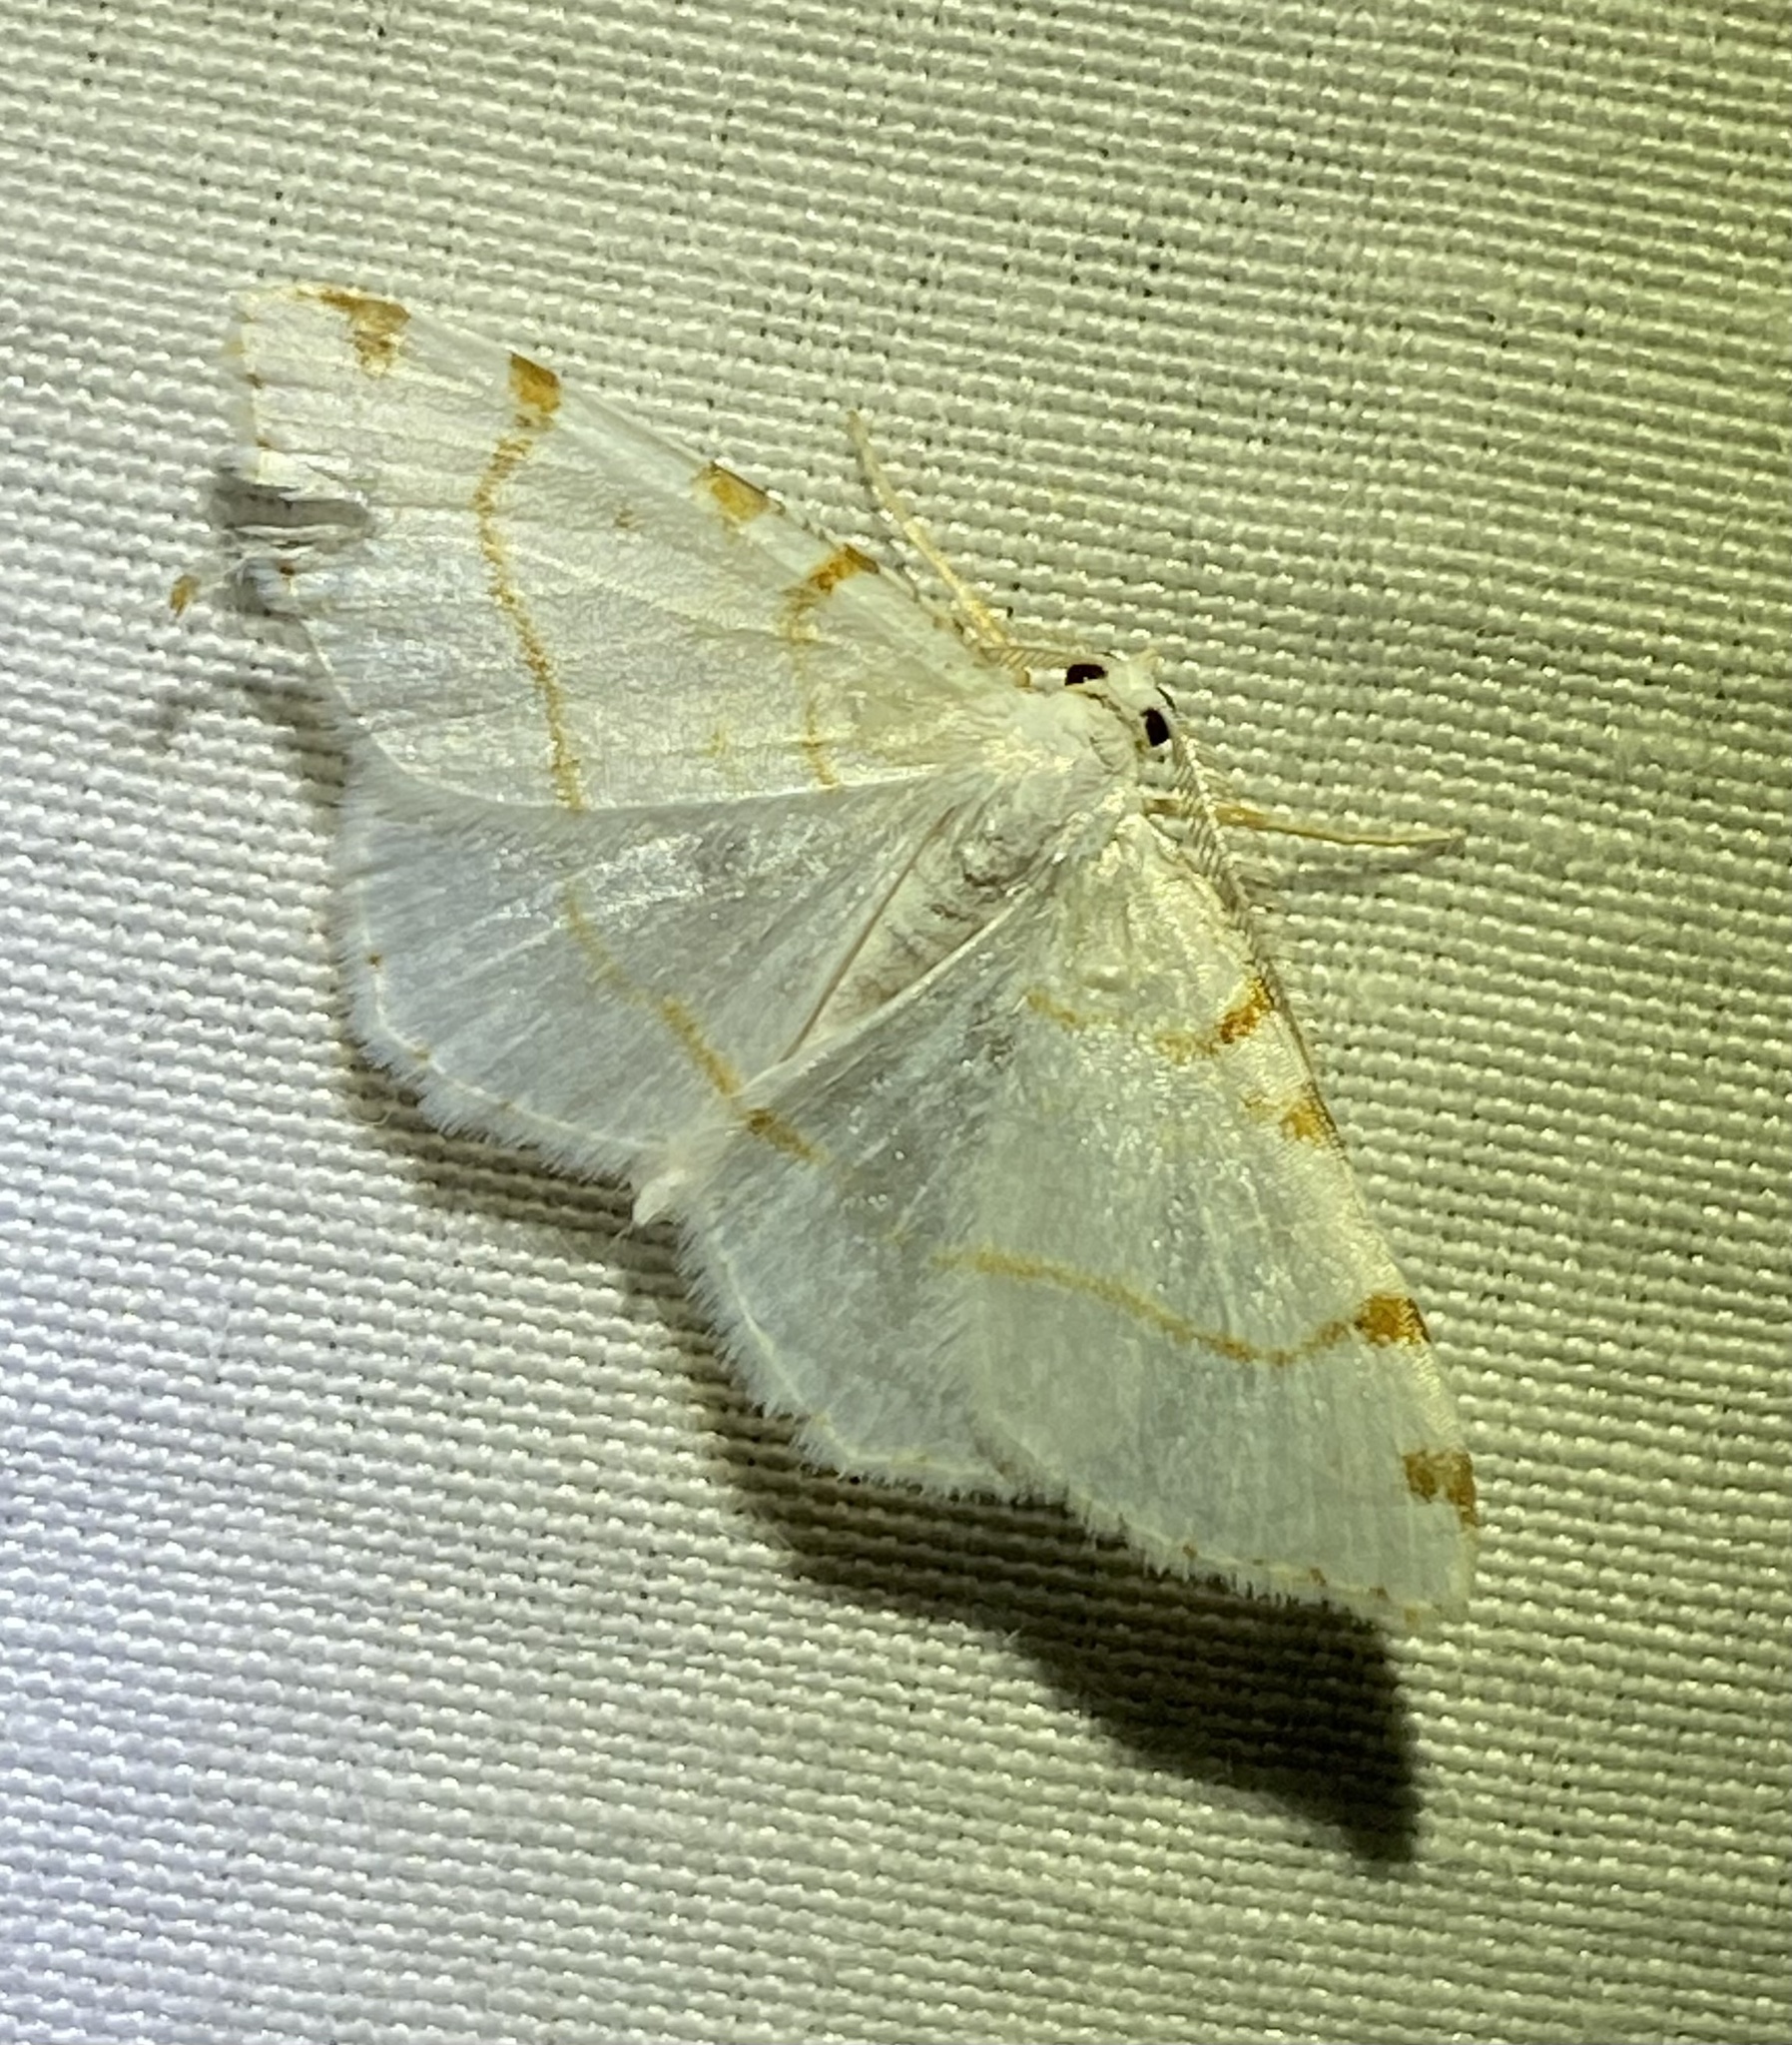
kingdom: Animalia
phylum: Arthropoda
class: Insecta
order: Lepidoptera
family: Geometridae
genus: Macaria
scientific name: Macaria pustularia
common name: Lesser maple spanworm moth
